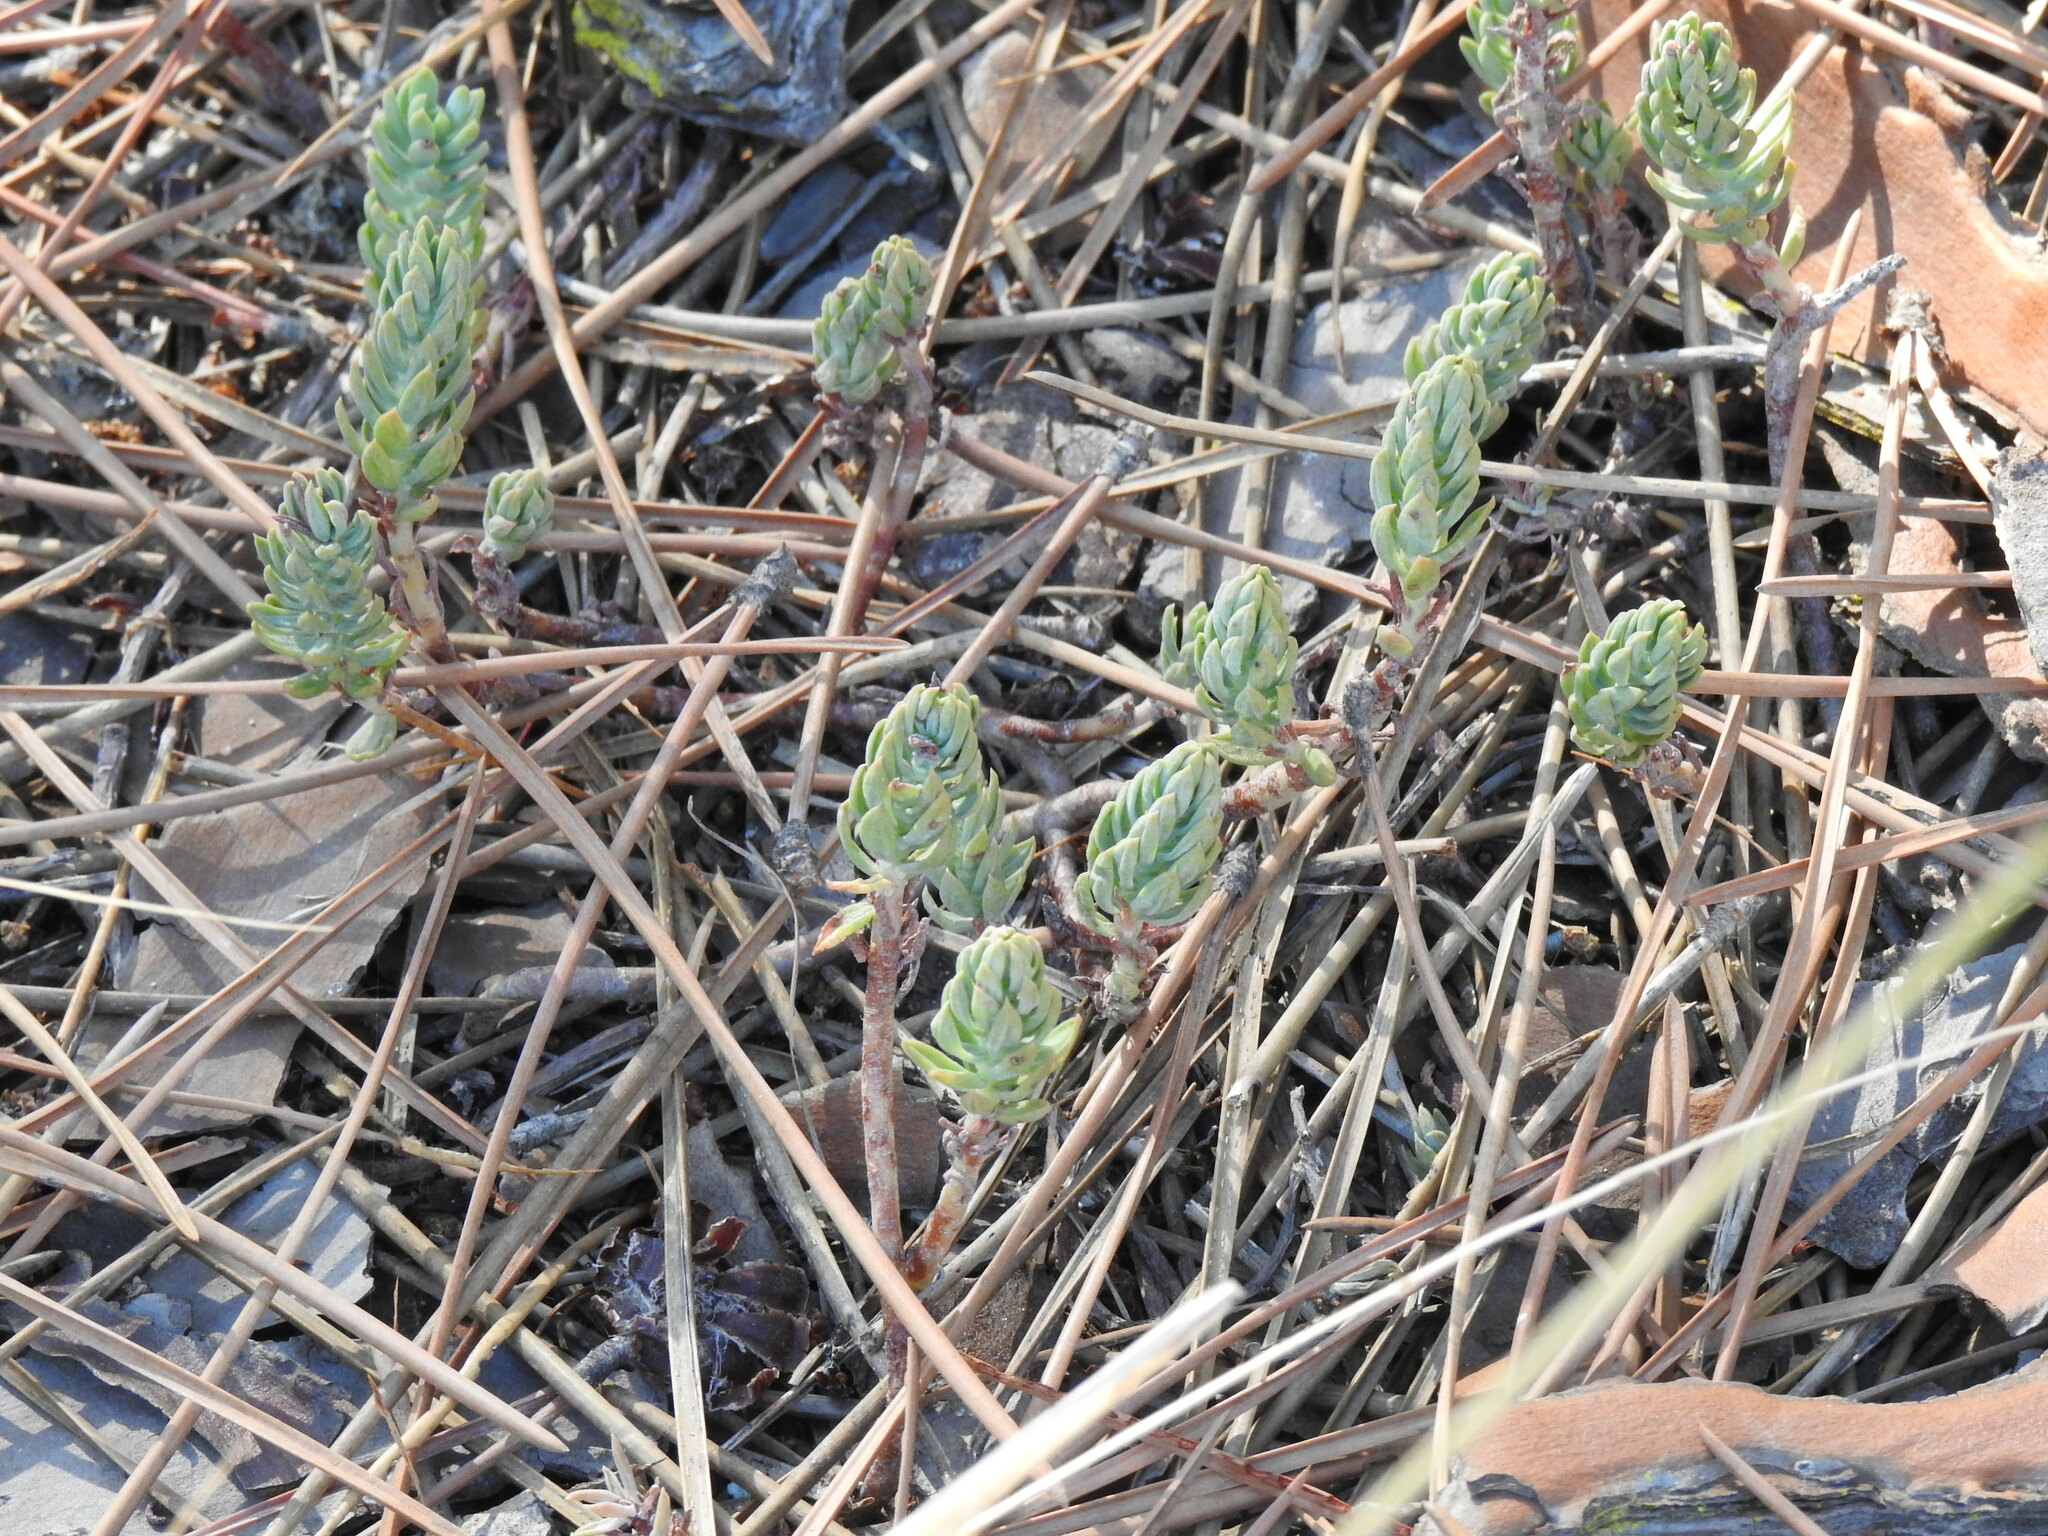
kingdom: Plantae
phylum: Tracheophyta
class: Magnoliopsida
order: Saxifragales
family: Crassulaceae
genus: Petrosedum
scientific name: Petrosedum sediforme
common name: Pale stonecrop
